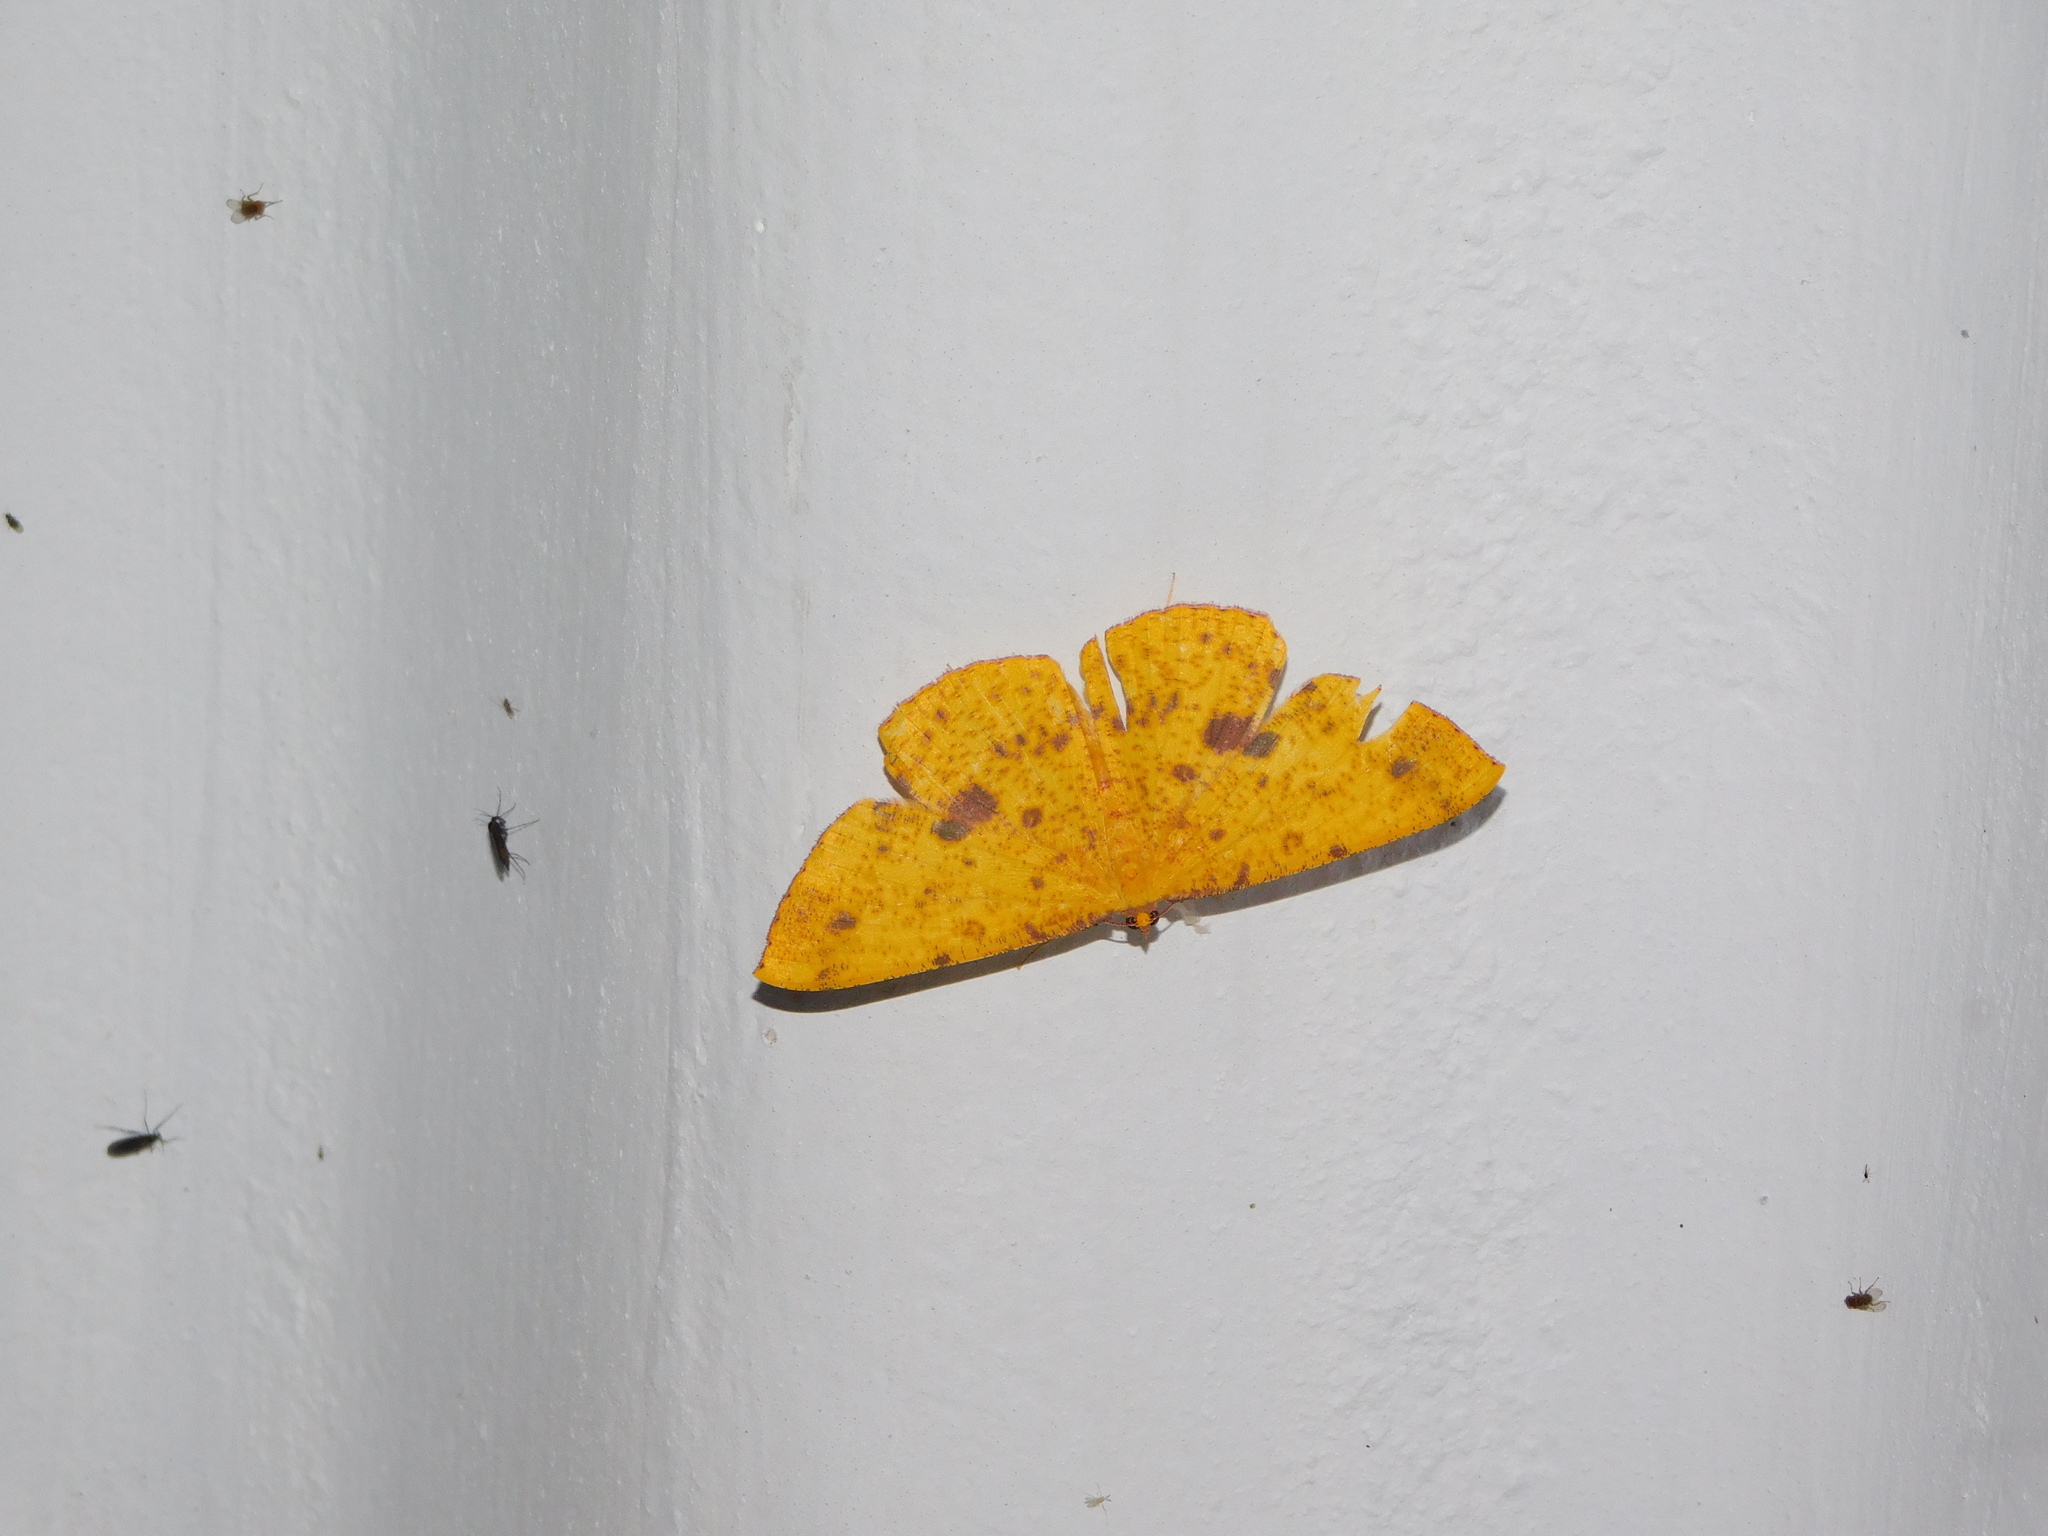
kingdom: Animalia
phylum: Arthropoda
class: Insecta
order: Lepidoptera
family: Geometridae
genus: Eumelea
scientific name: Eumelea ludovicata
